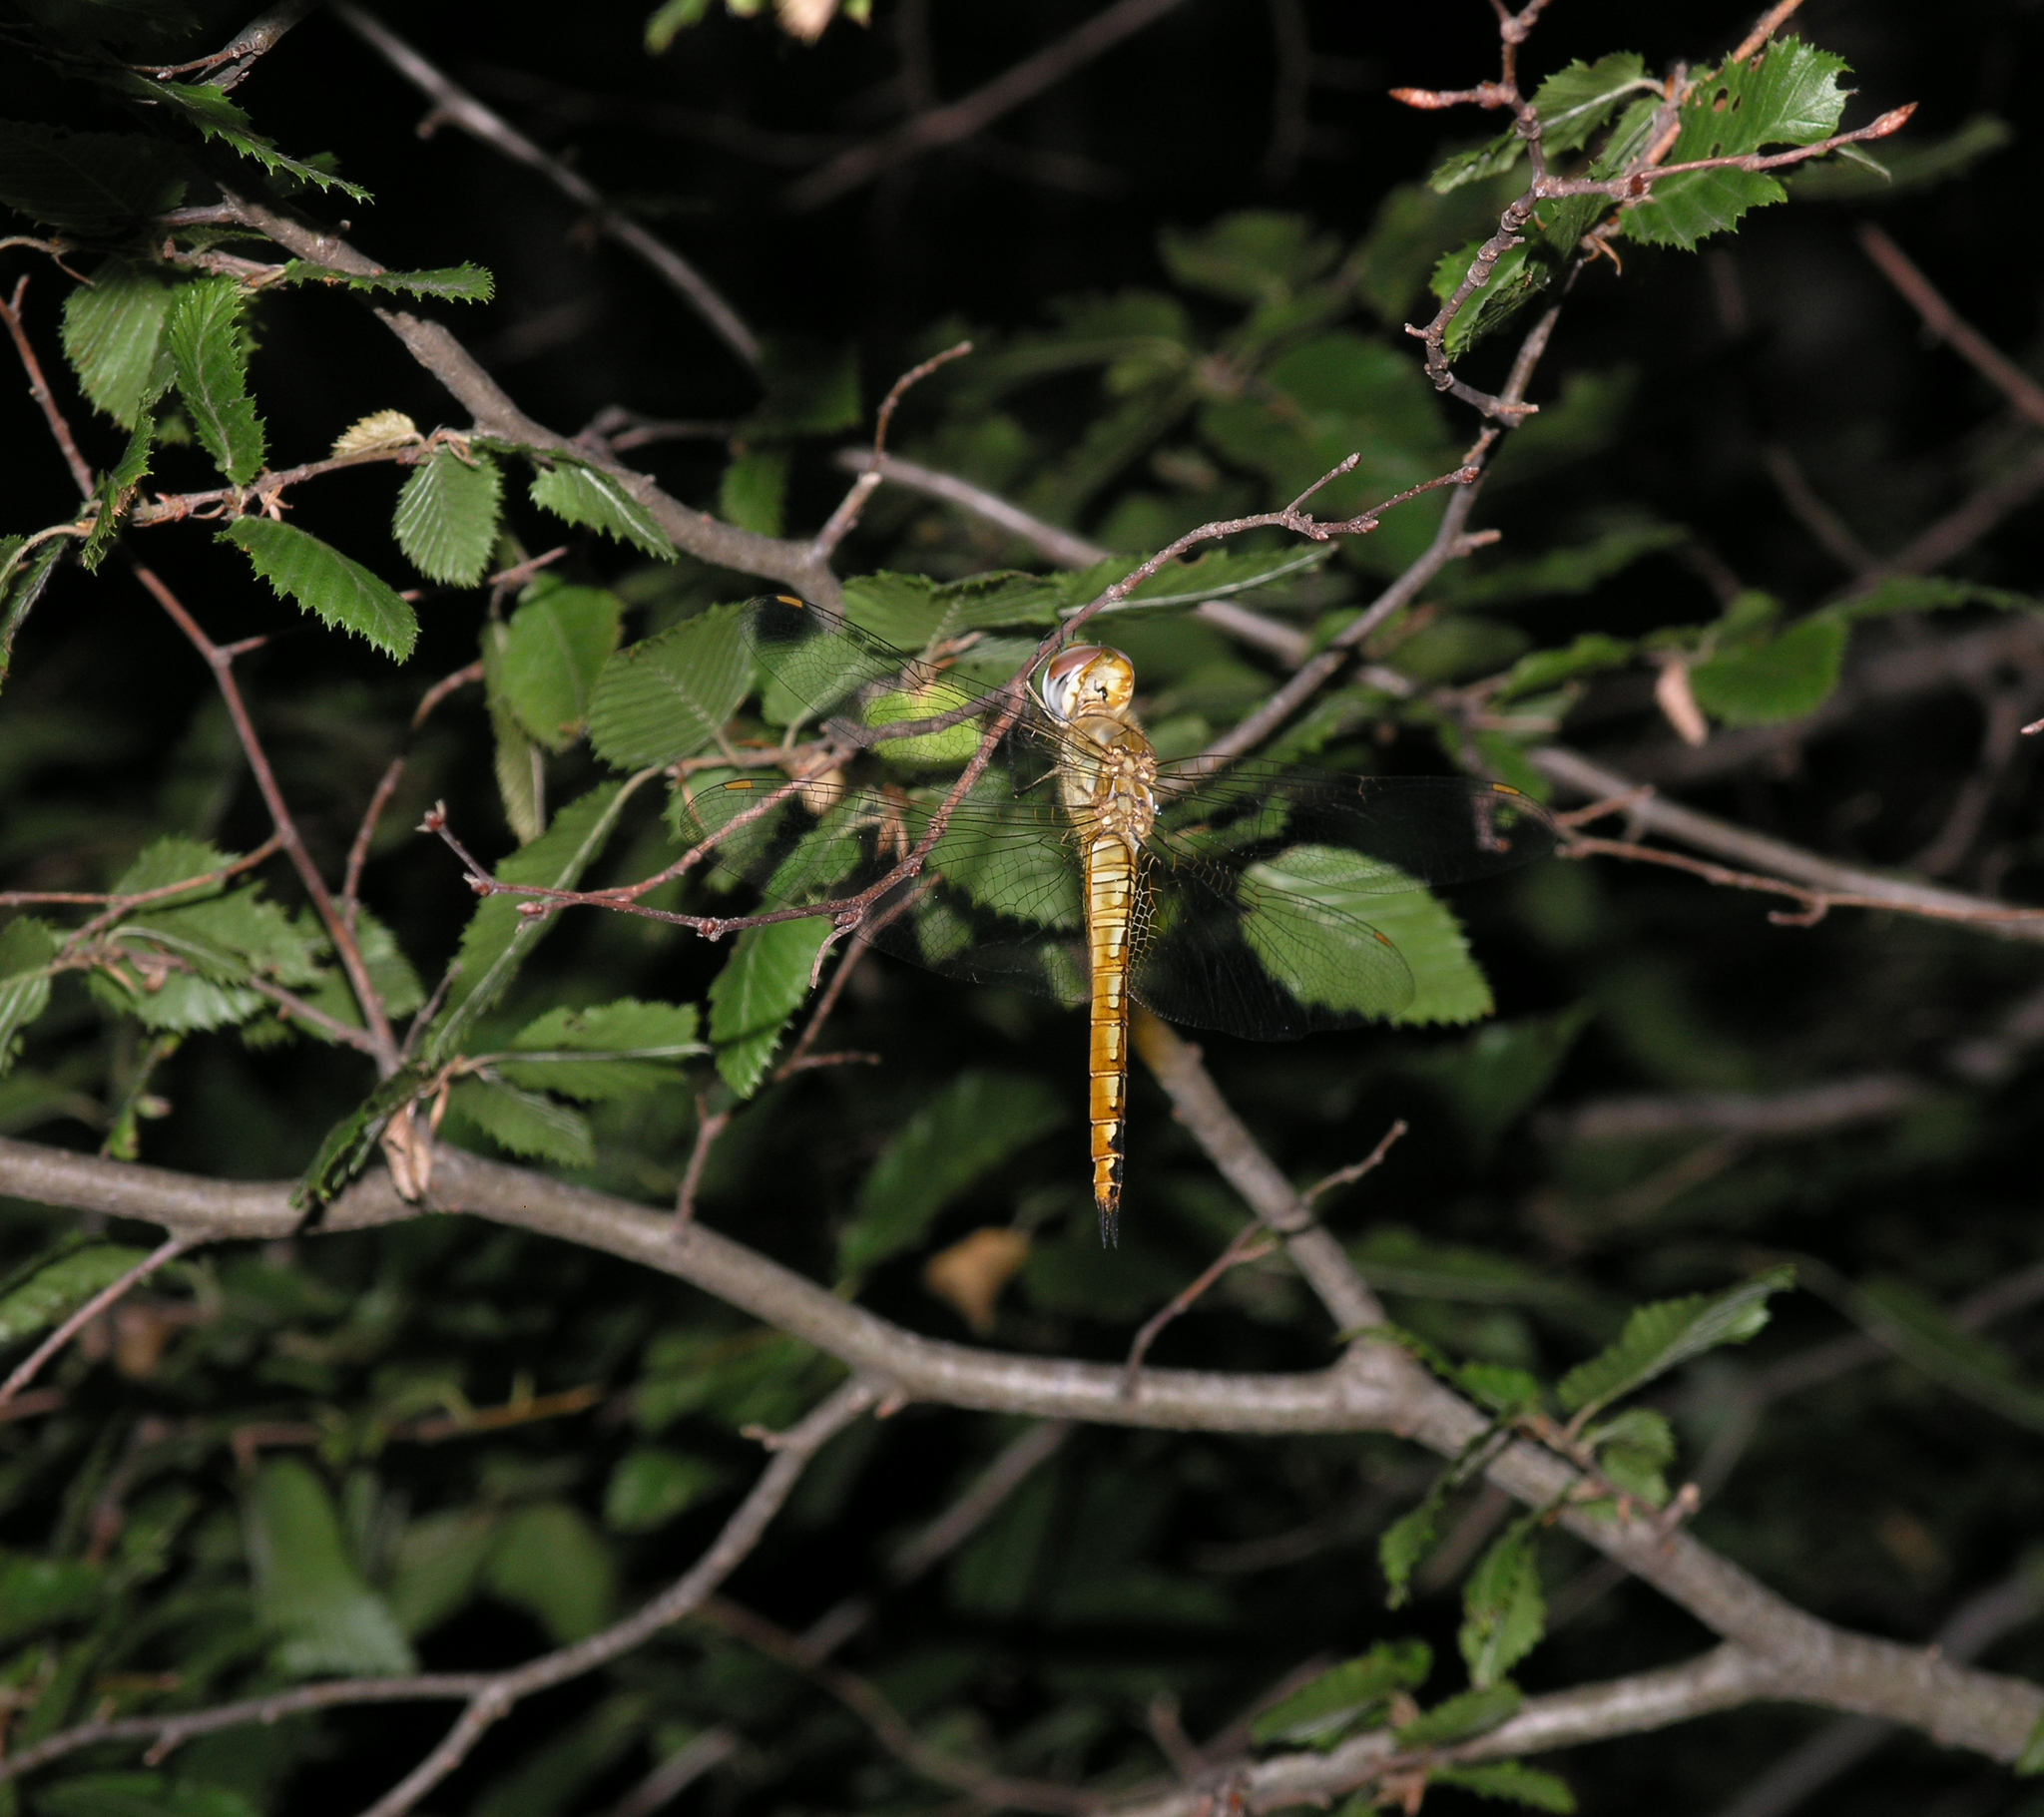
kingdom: Animalia
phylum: Arthropoda
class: Insecta
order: Odonata
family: Libellulidae
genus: Pantala
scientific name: Pantala flavescens
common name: Wandering glider
